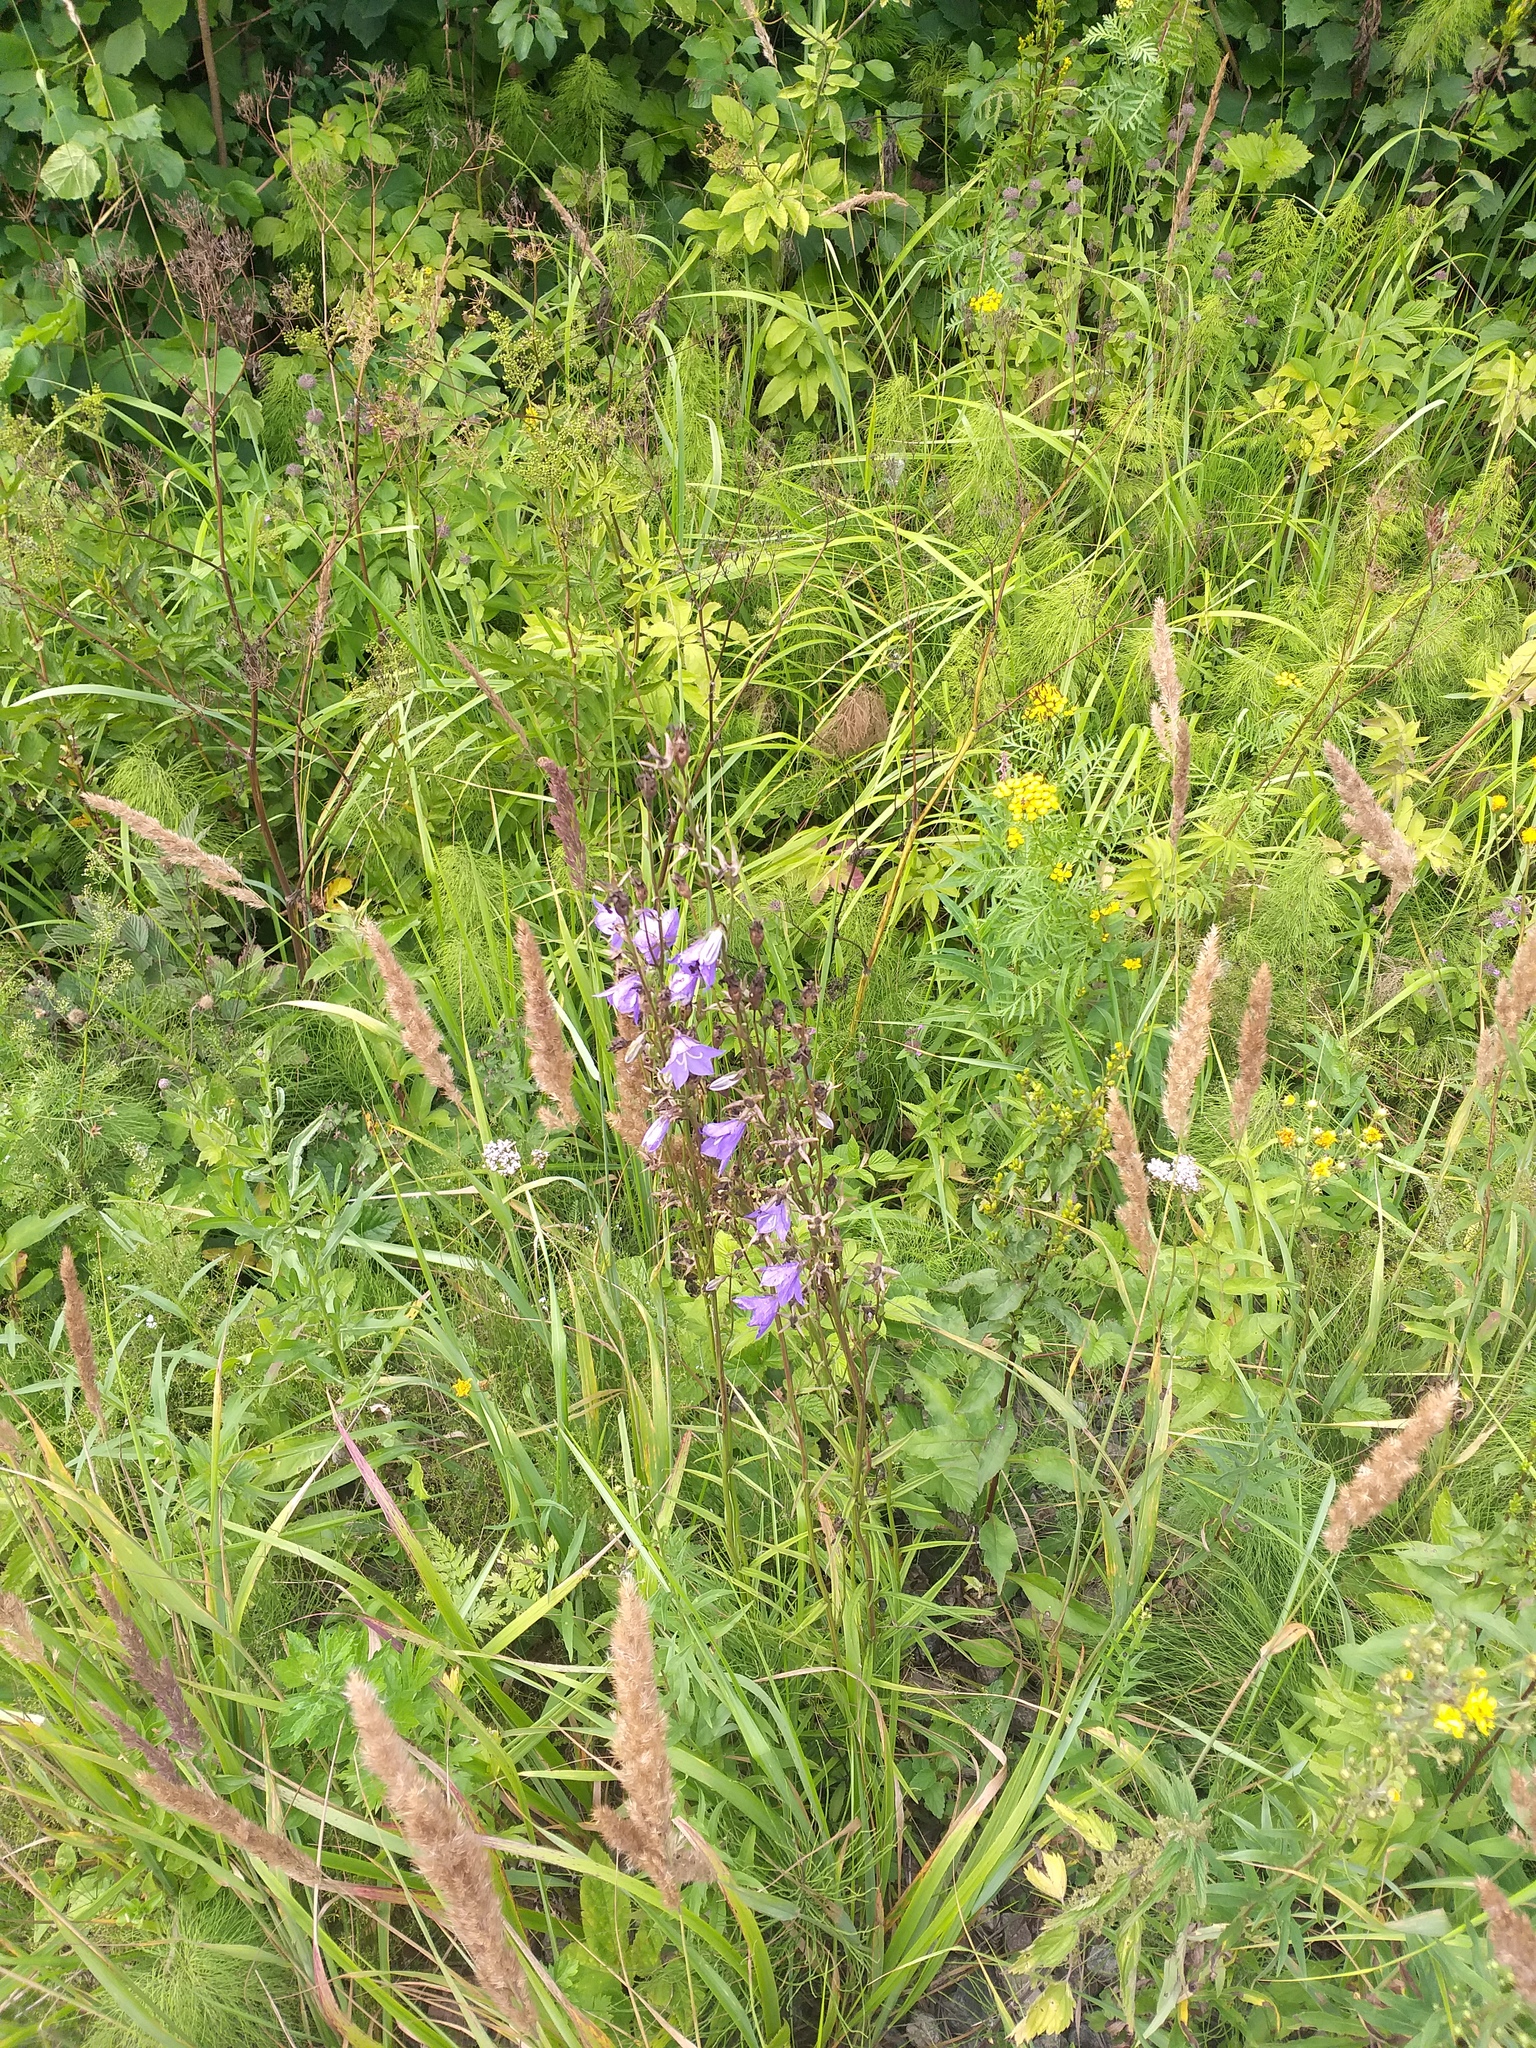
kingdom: Plantae
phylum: Tracheophyta
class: Magnoliopsida
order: Asterales
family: Campanulaceae
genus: Campanula
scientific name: Campanula persicifolia
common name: Peach-leaved bellflower
